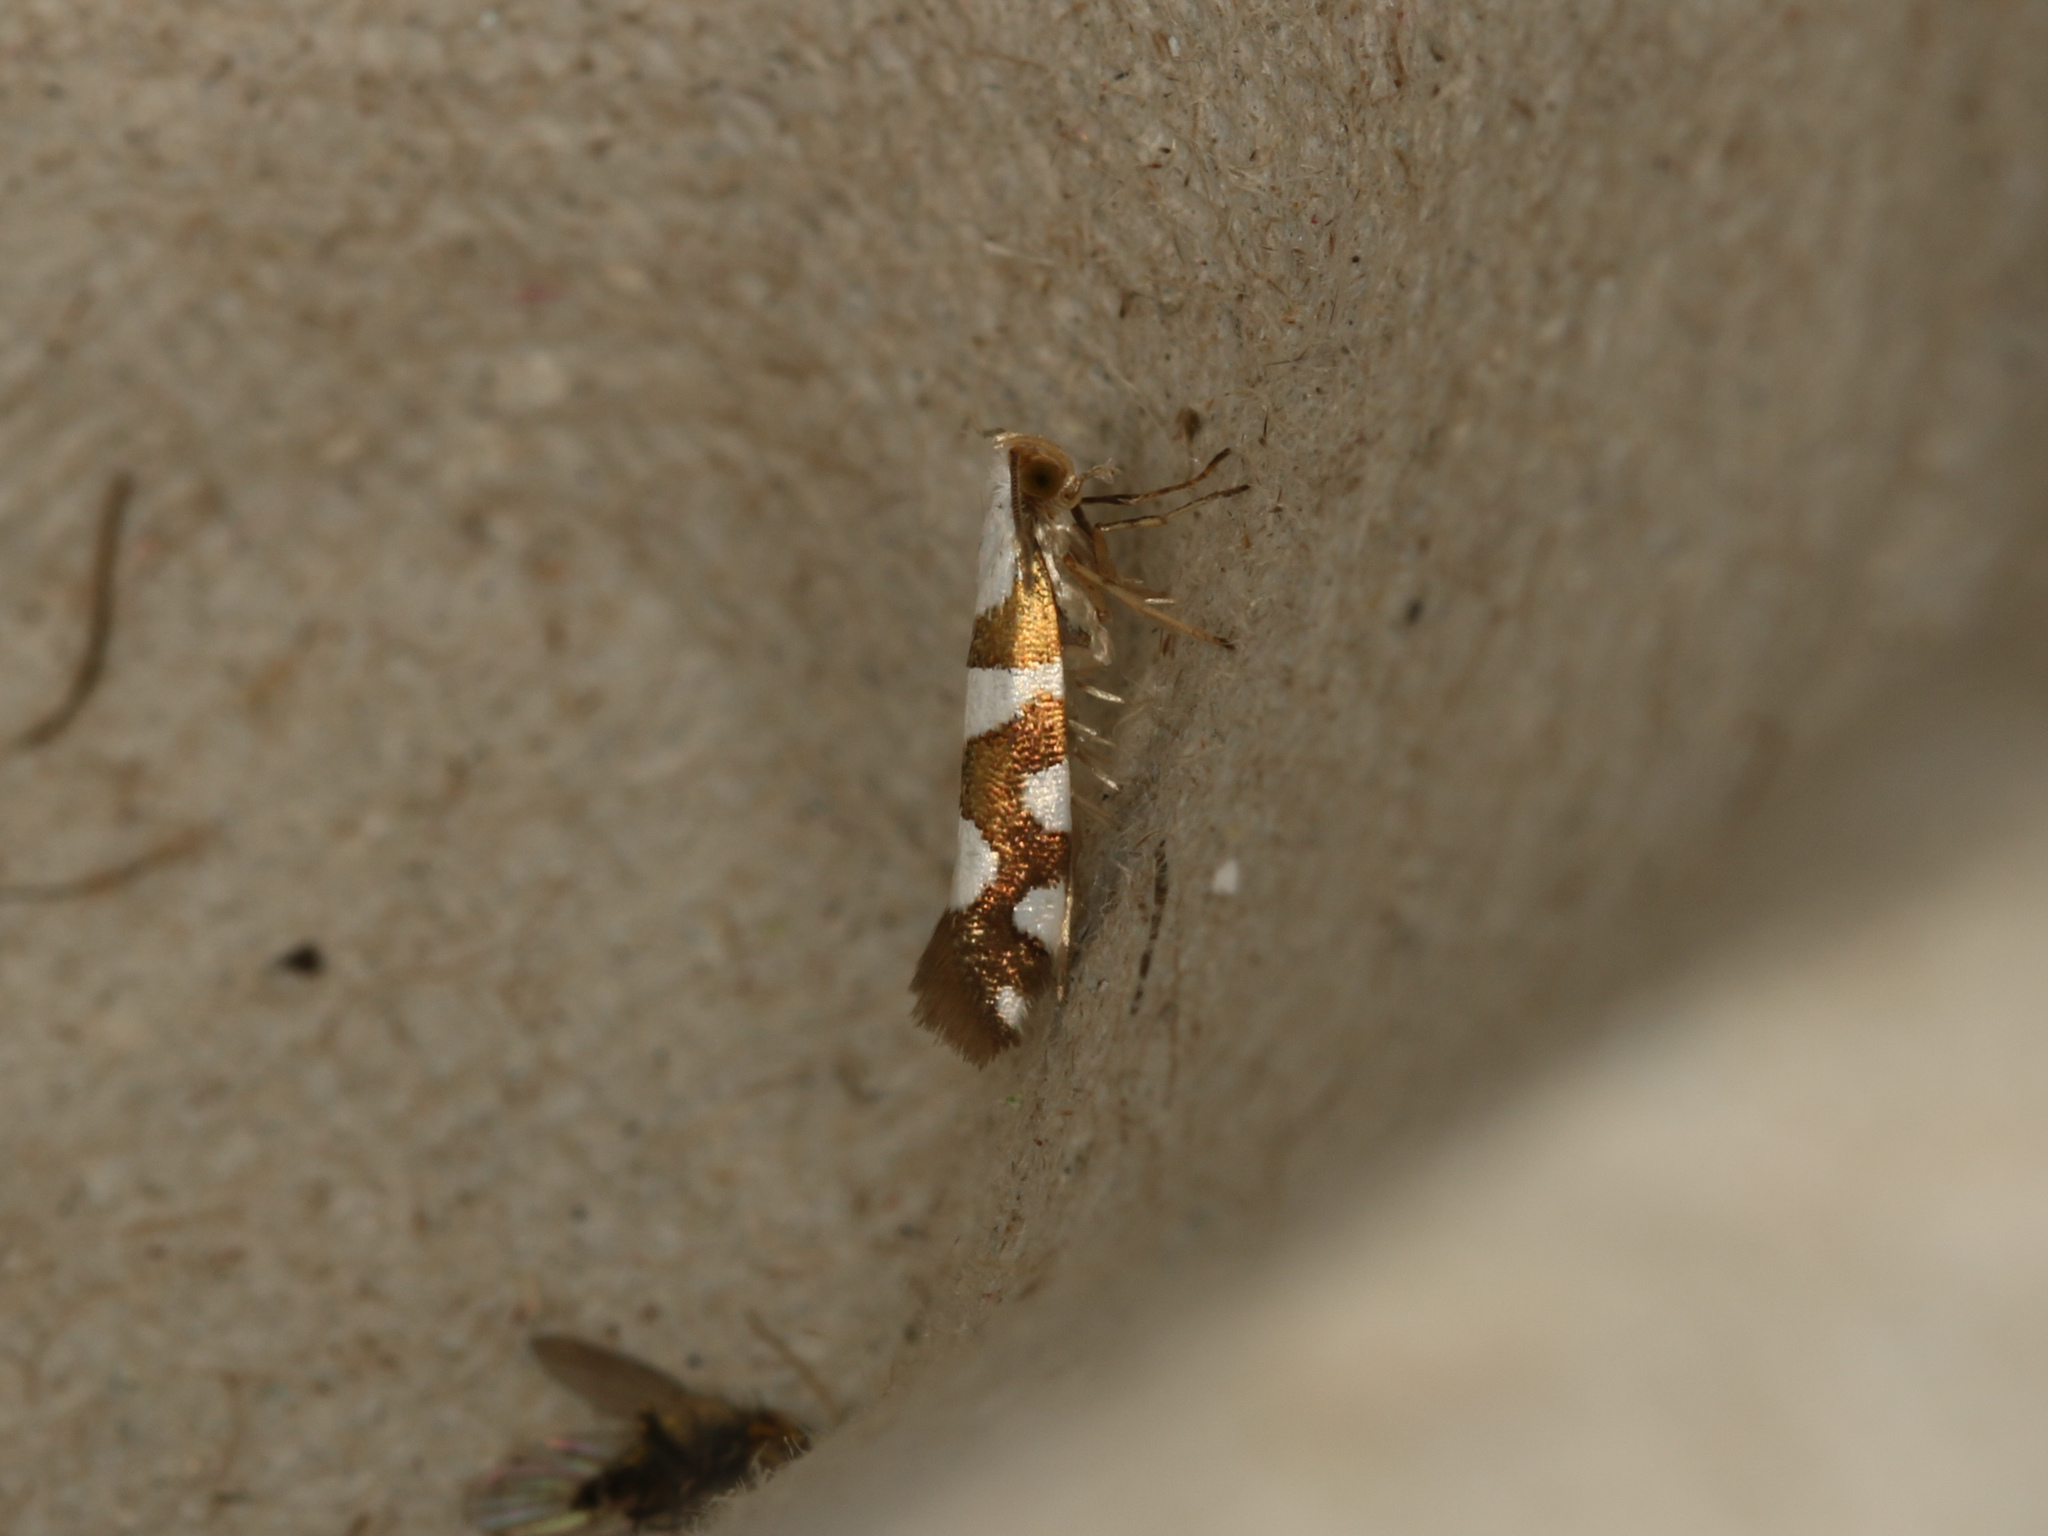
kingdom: Animalia
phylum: Arthropoda
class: Insecta
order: Lepidoptera
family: Argyresthiidae
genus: Argyresthia
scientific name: Argyresthia brockeella
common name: Gold-ribbon argent
